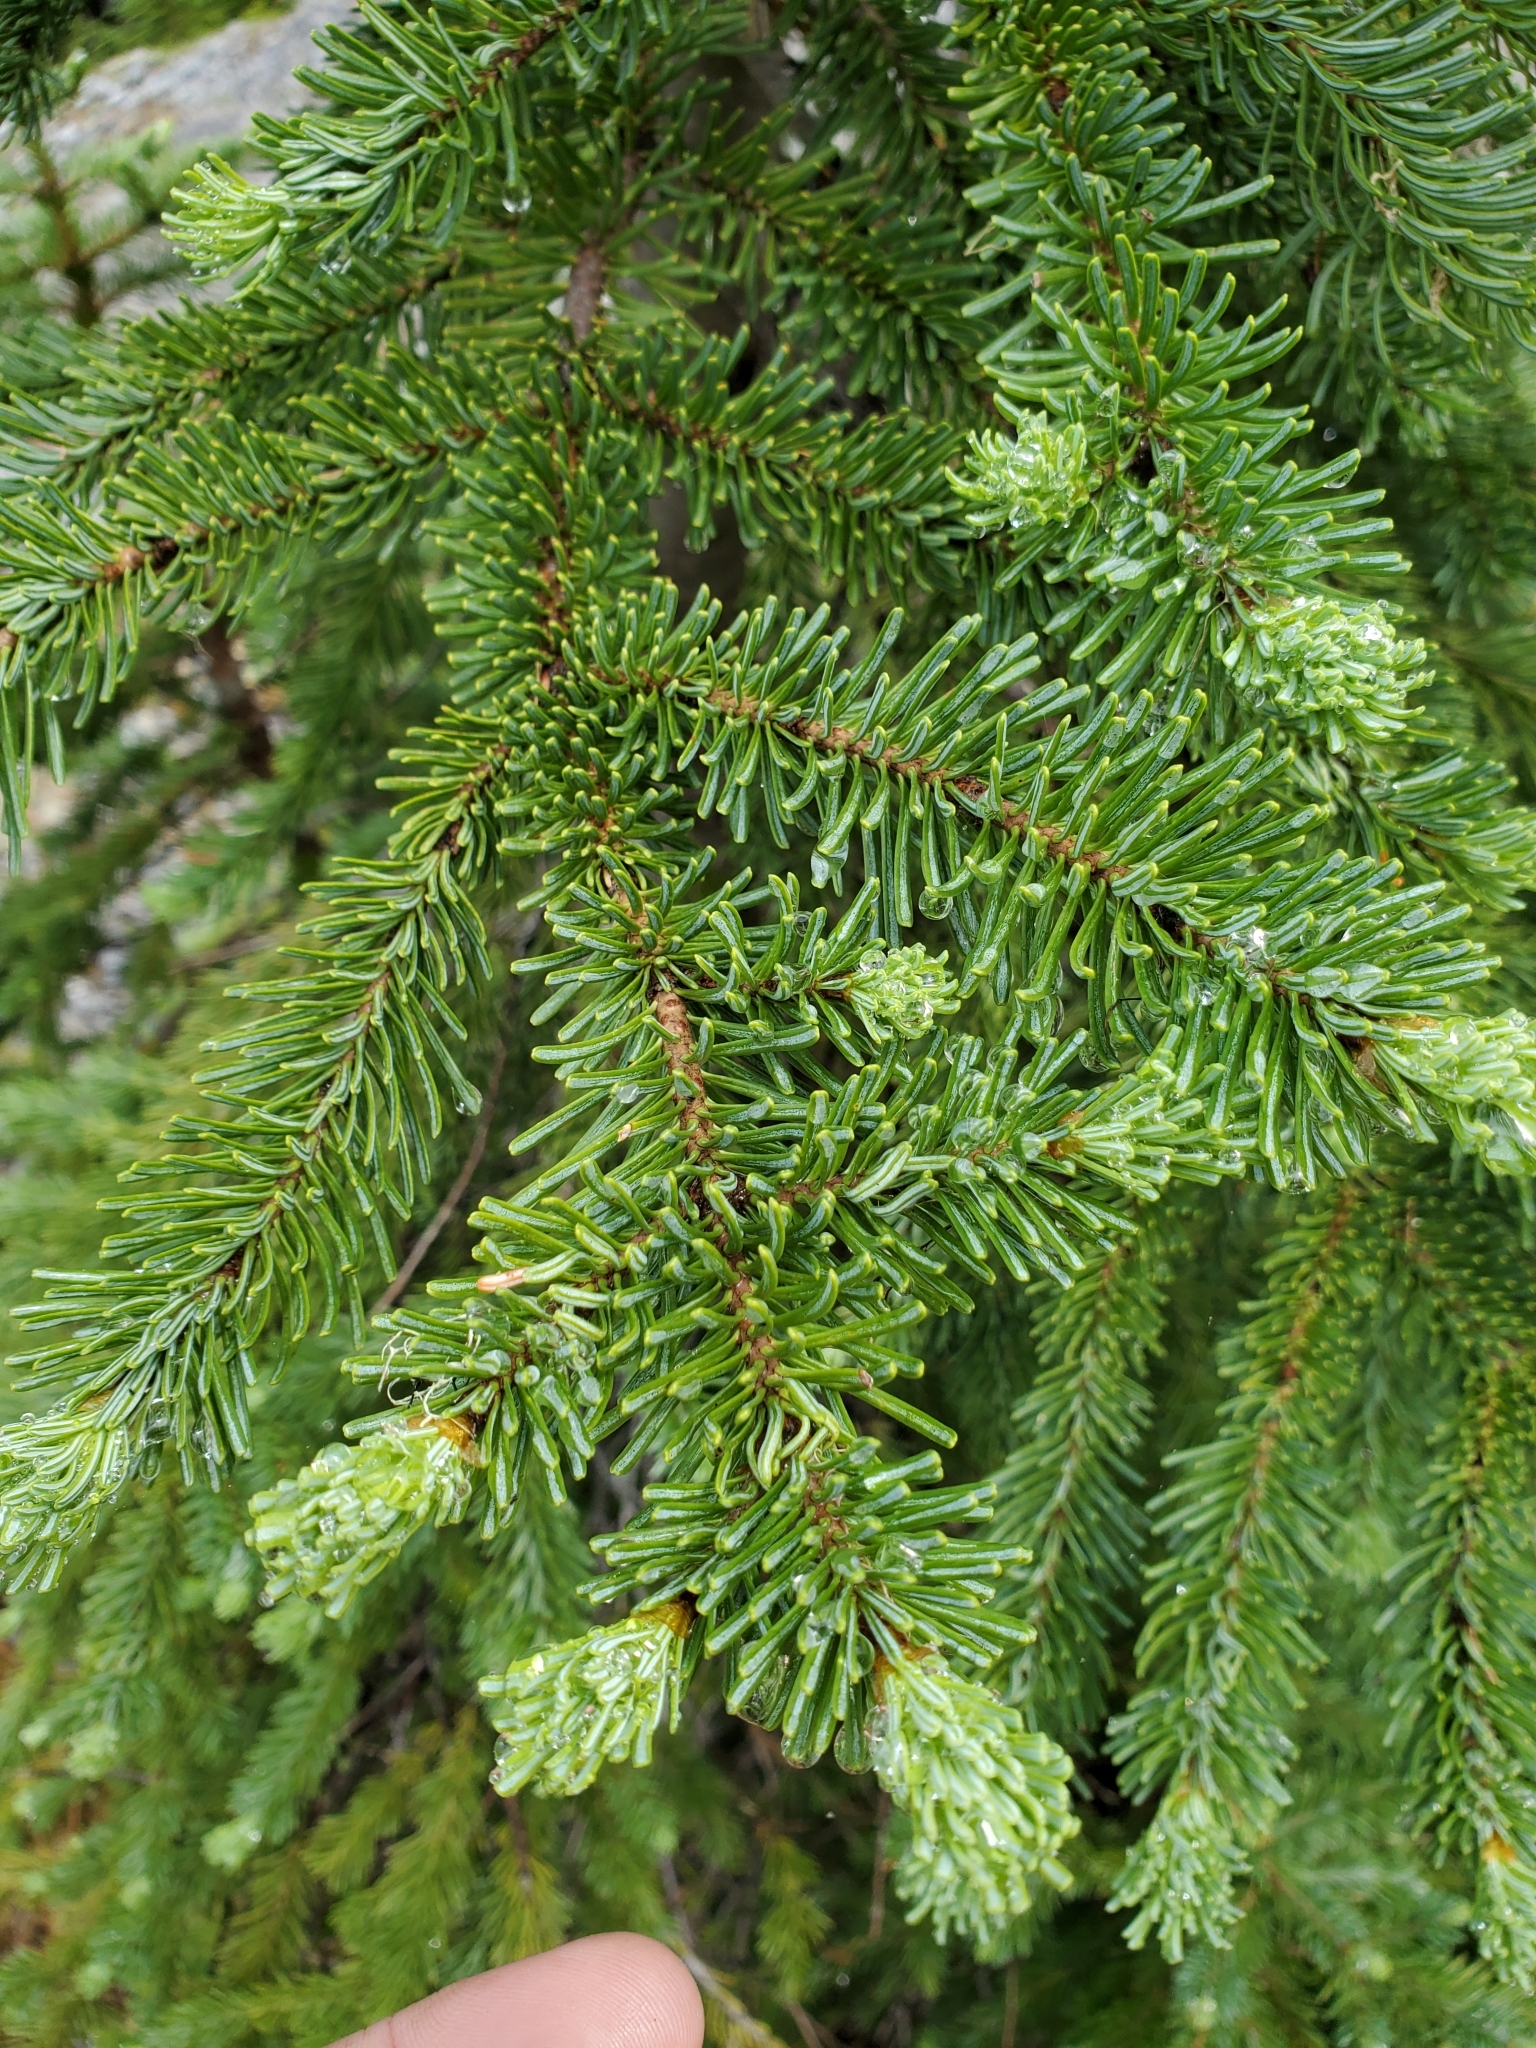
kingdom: Plantae
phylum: Tracheophyta
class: Pinopsida
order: Pinales
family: Pinaceae
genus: Abies
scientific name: Abies lasiocarpa
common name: Subalpine fir
